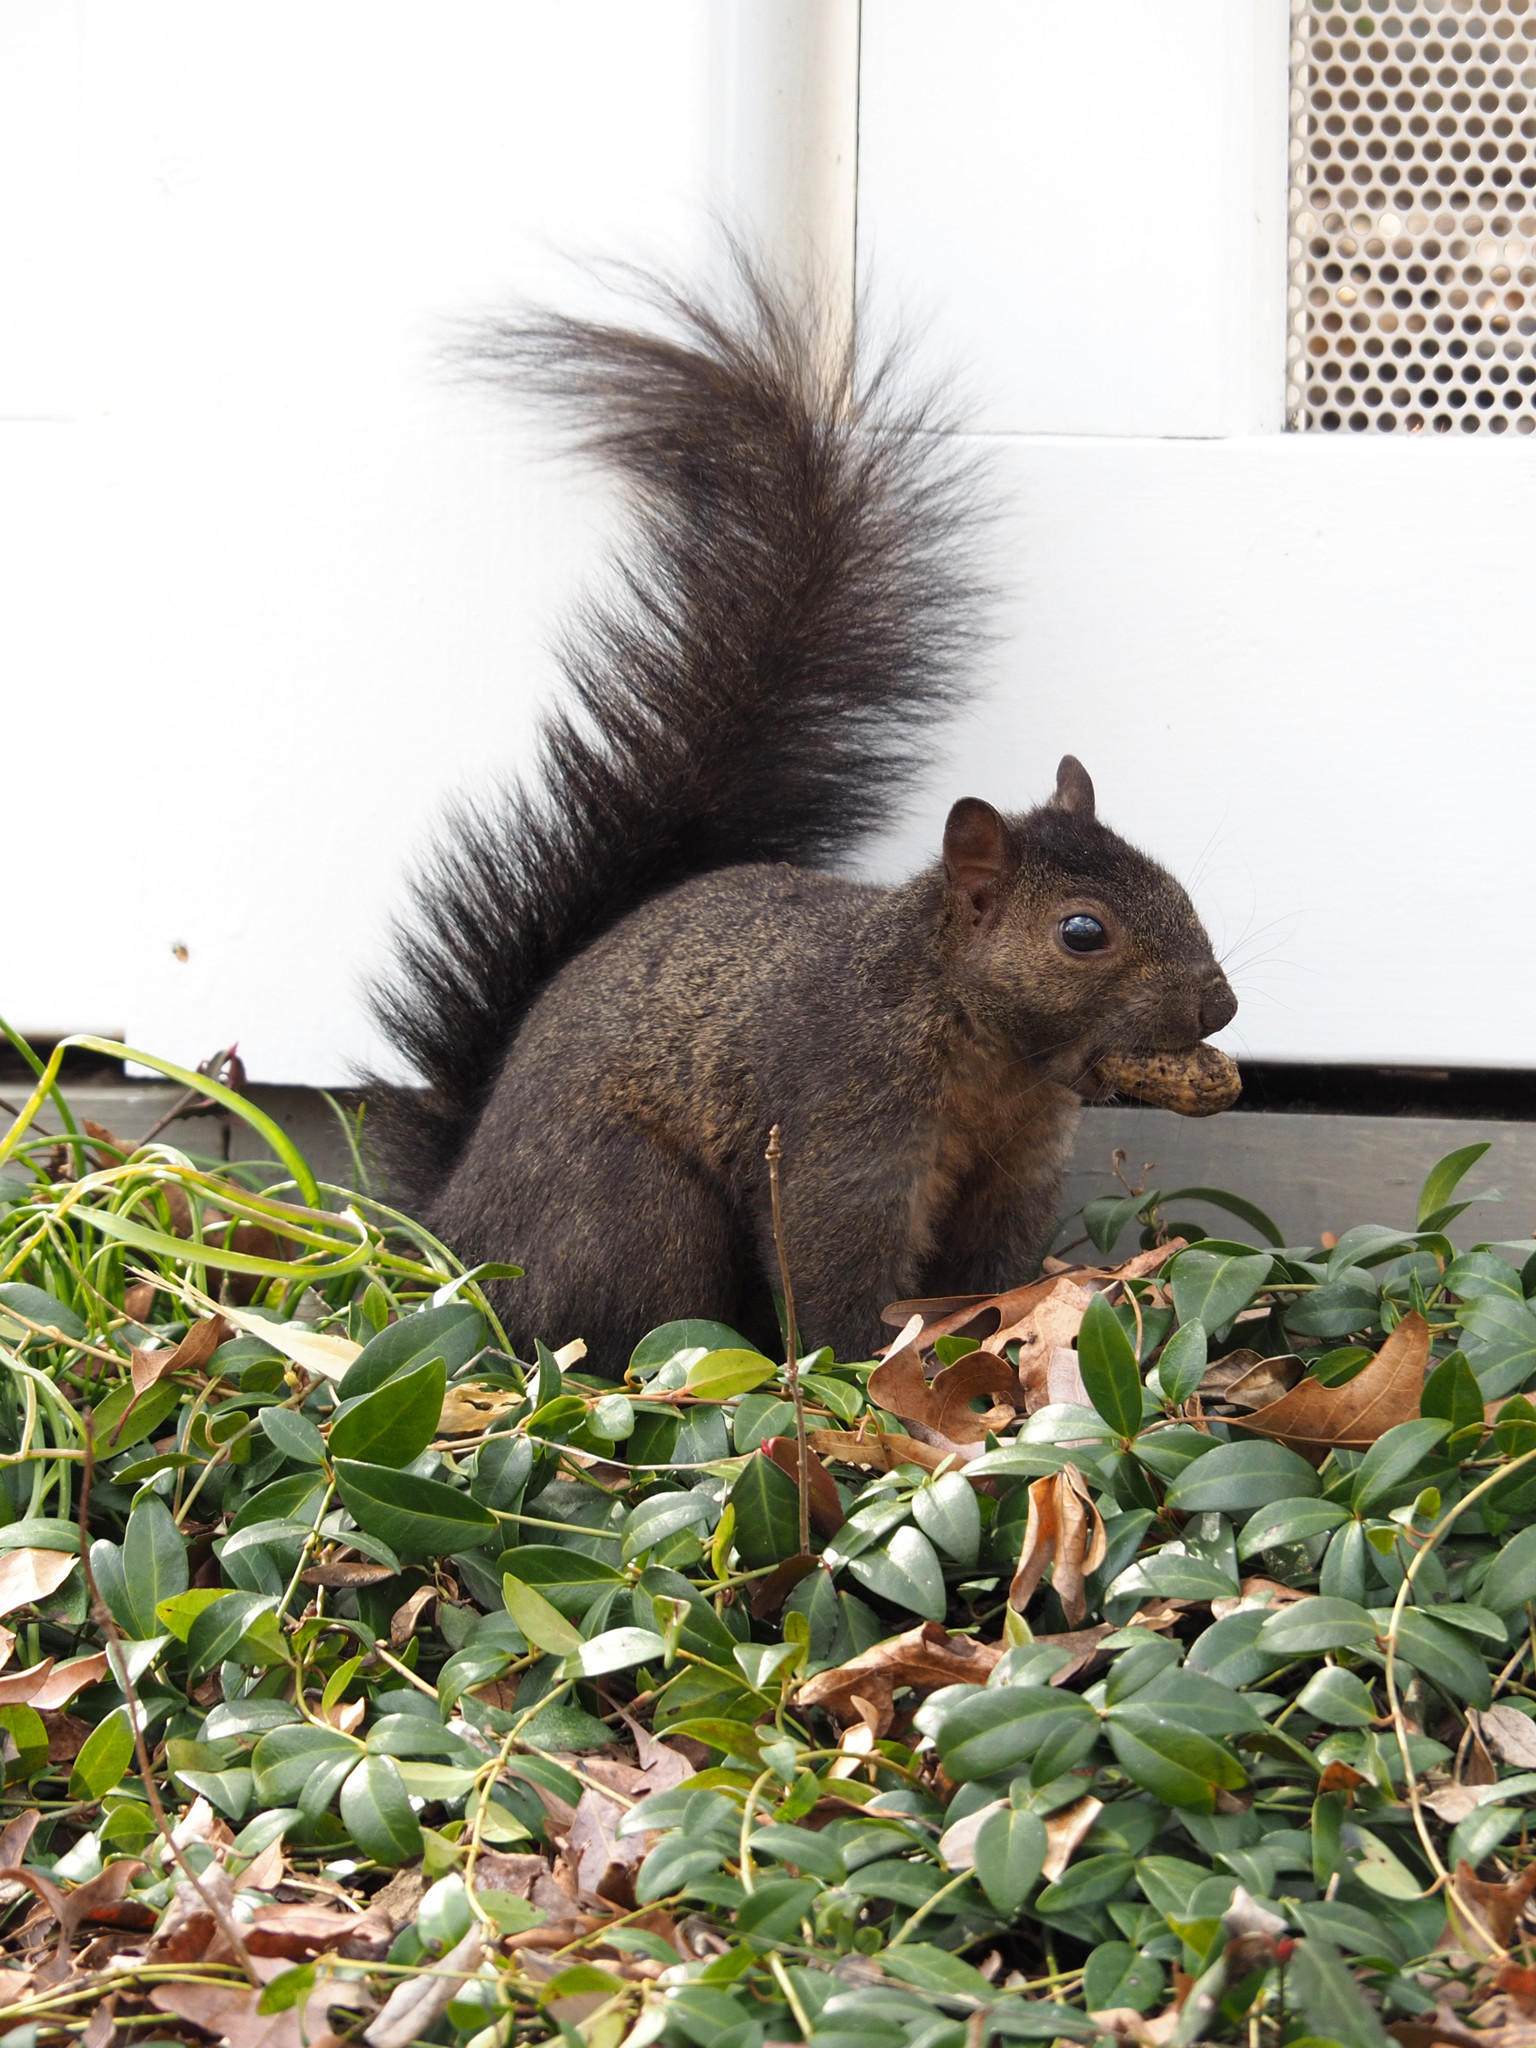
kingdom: Animalia
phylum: Chordata
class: Mammalia
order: Rodentia
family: Sciuridae
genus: Sciurus
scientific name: Sciurus carolinensis
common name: Eastern gray squirrel
